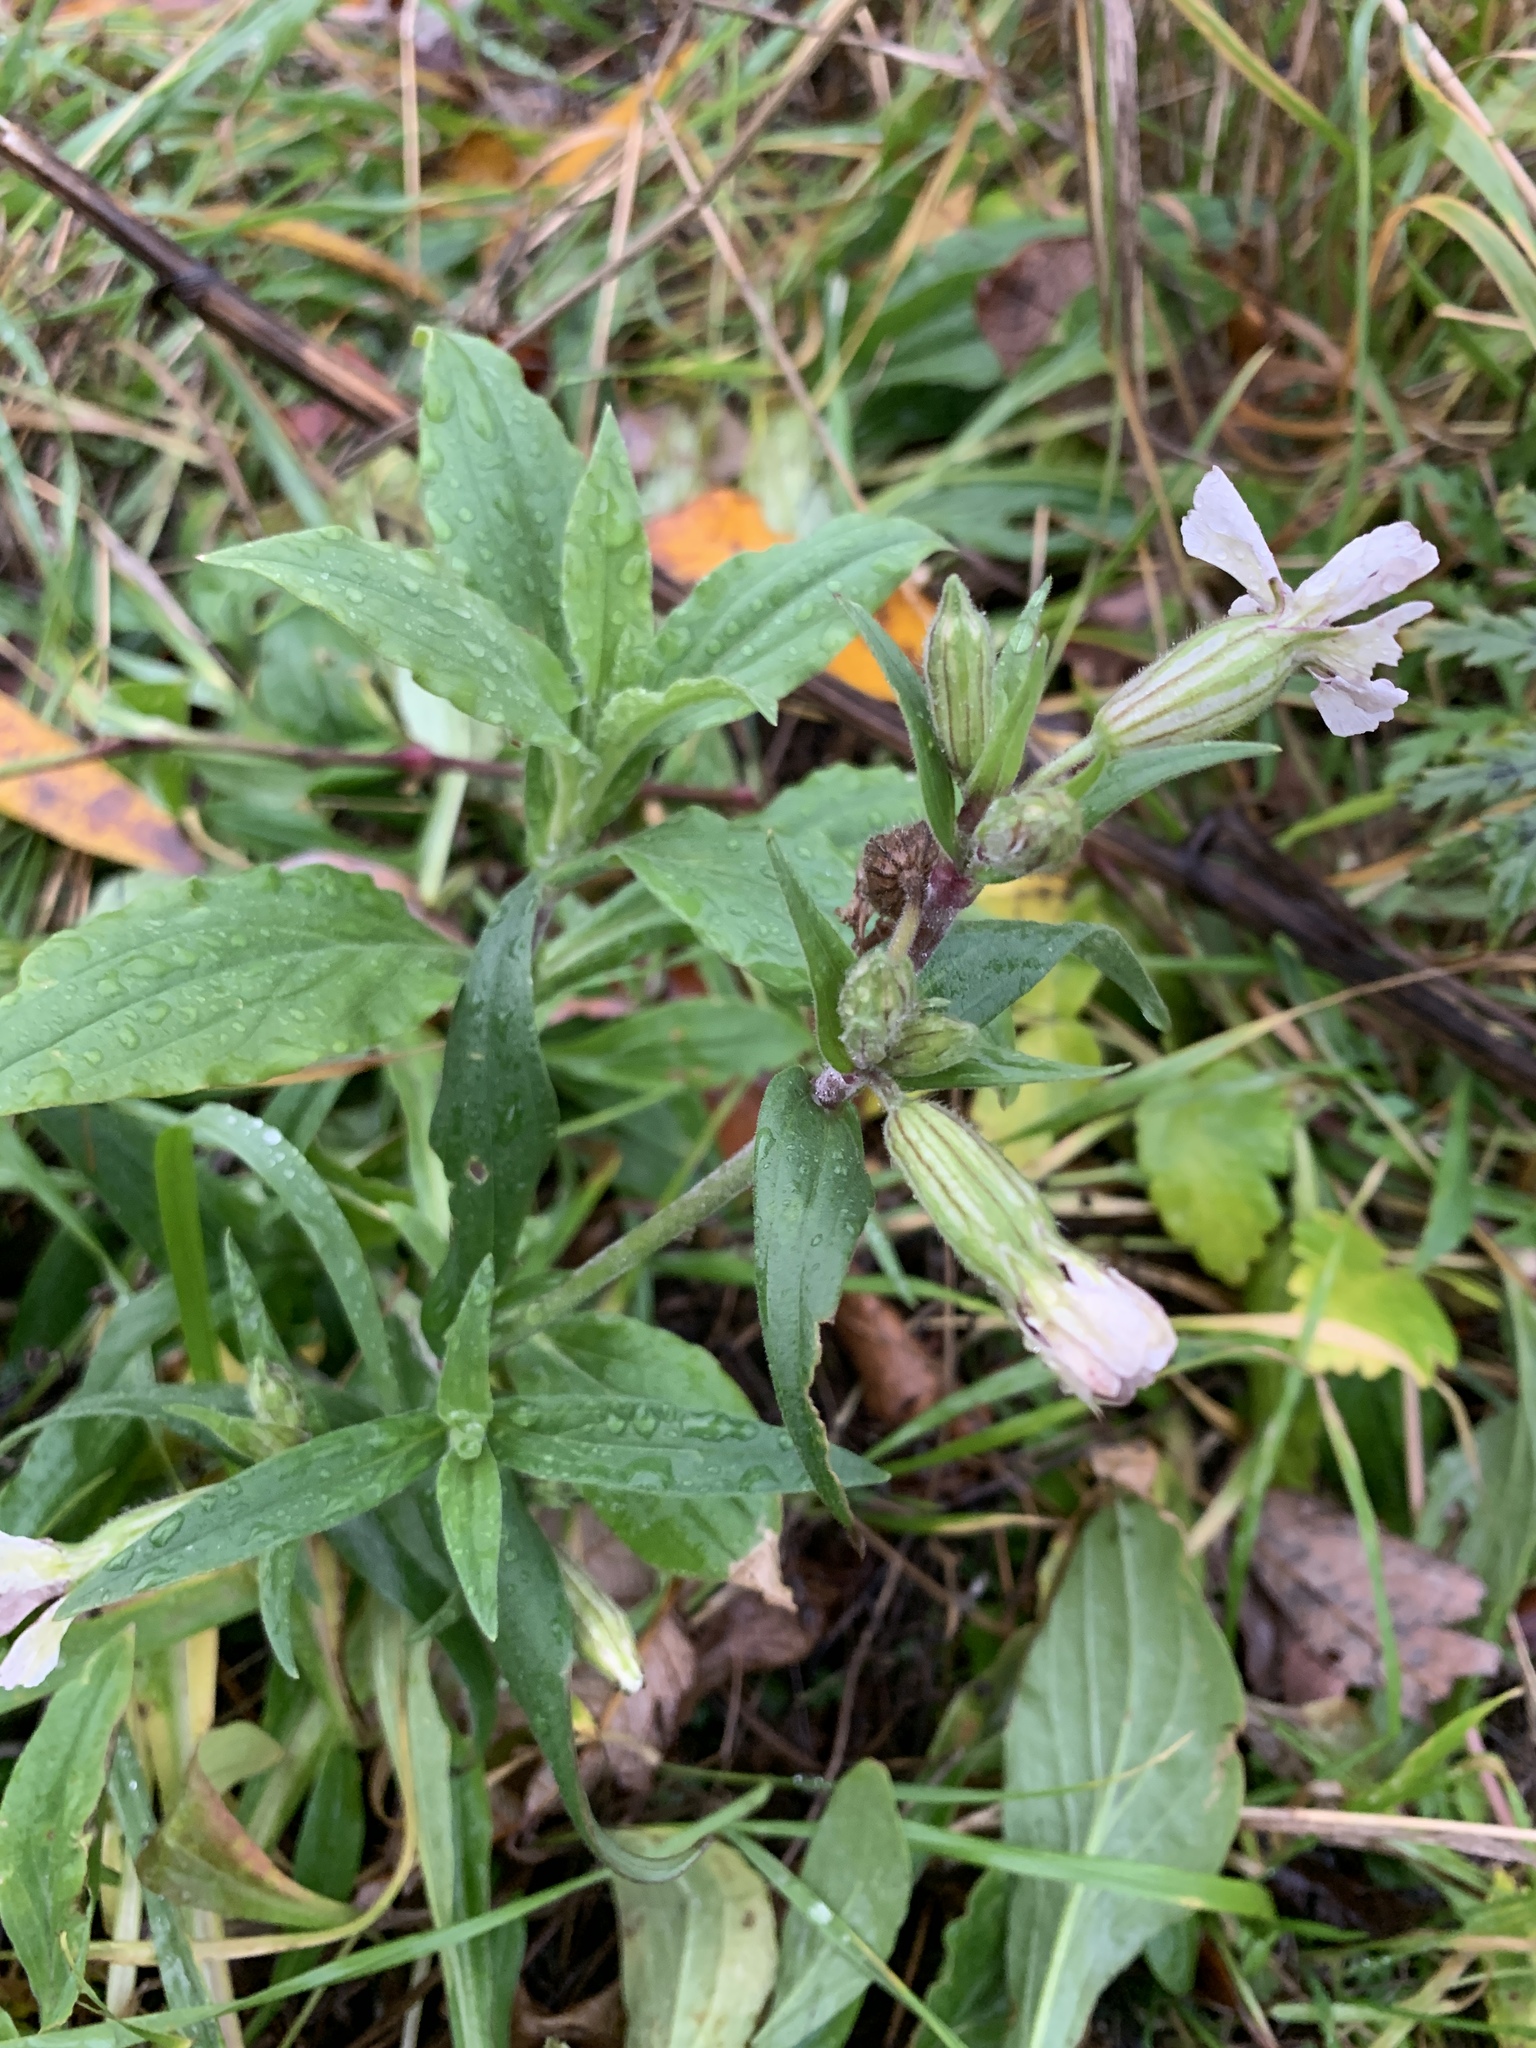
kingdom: Plantae
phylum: Tracheophyta
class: Magnoliopsida
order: Caryophyllales
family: Caryophyllaceae
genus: Silene
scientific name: Silene latifolia
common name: White campion
